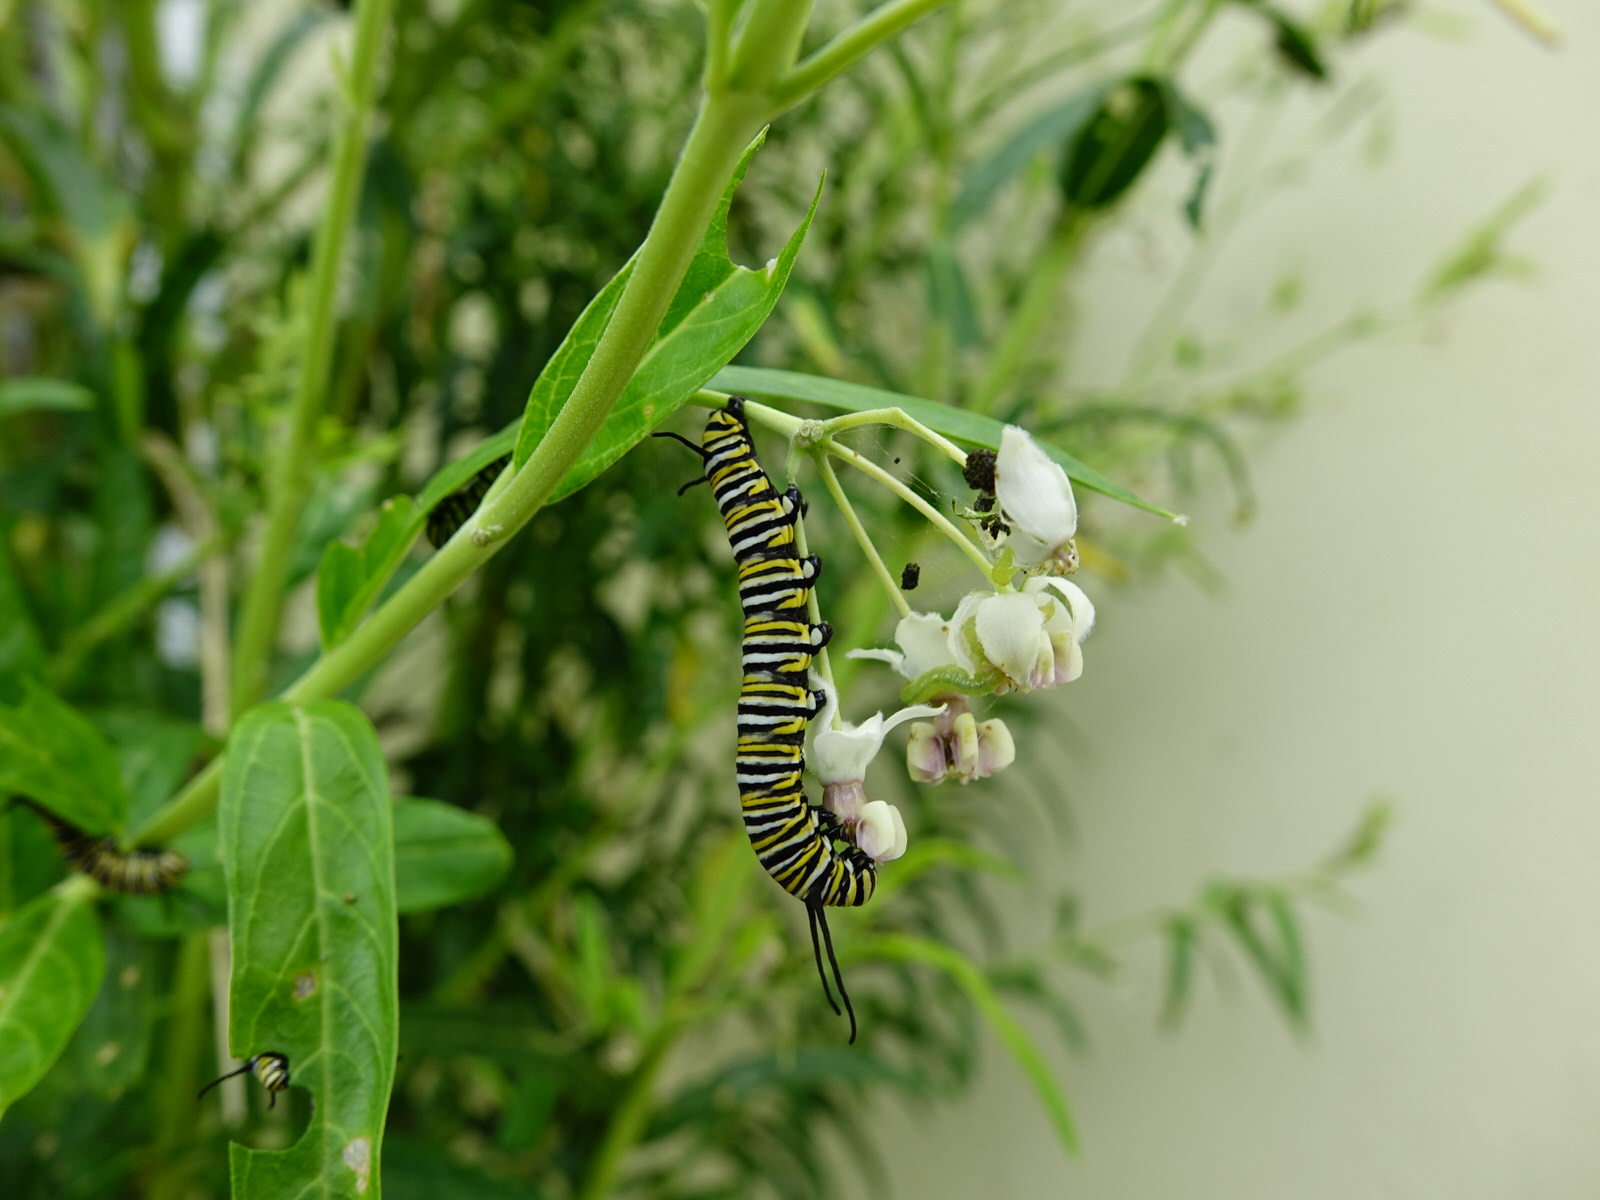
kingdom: Animalia
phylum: Arthropoda
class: Insecta
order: Lepidoptera
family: Nymphalidae
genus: Danaus
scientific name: Danaus plexippus
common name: Monarch
